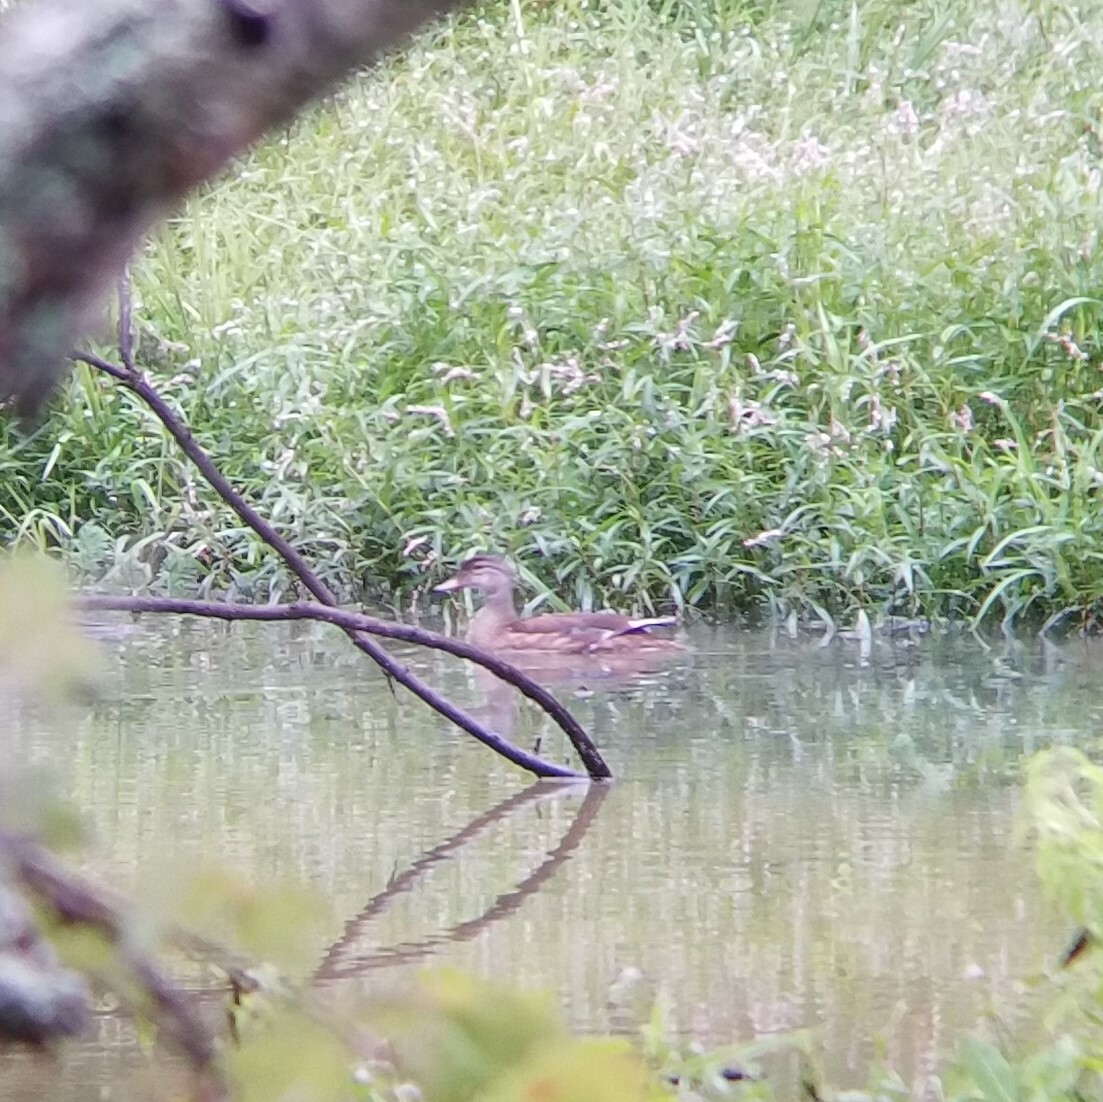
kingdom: Animalia
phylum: Chordata
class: Aves
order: Anseriformes
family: Anatidae
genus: Aix
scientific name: Aix sponsa
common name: Wood duck
